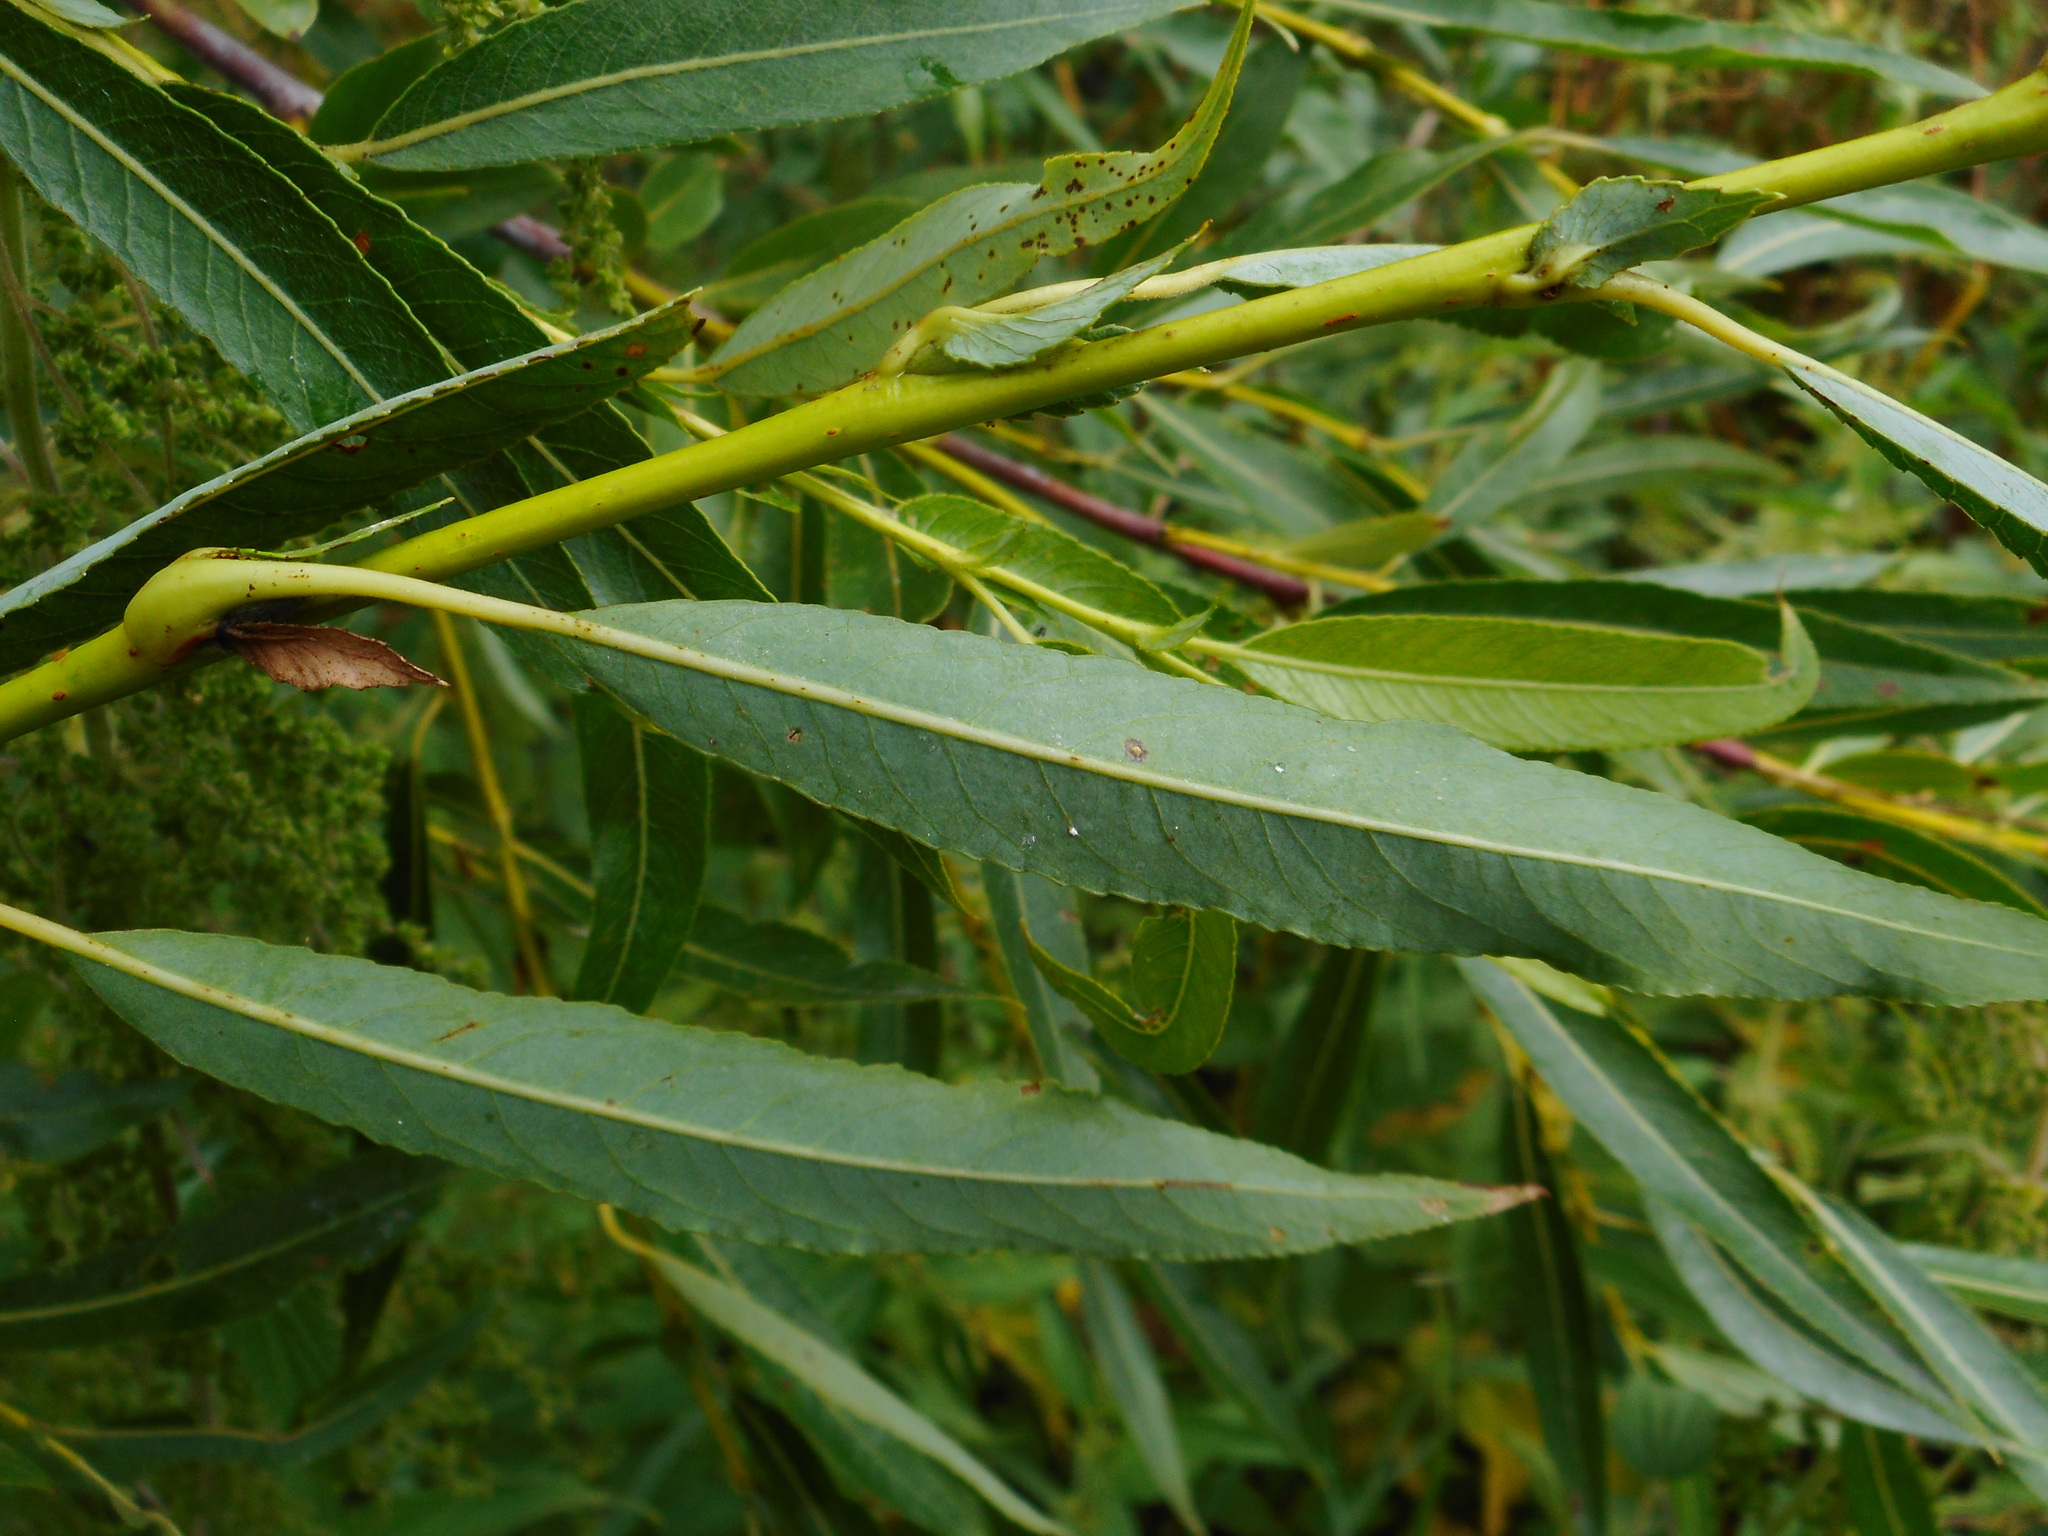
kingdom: Plantae
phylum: Tracheophyta
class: Magnoliopsida
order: Malpighiales
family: Salicaceae
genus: Salix
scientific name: Salix acutifolia
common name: Siberian violet-willow
